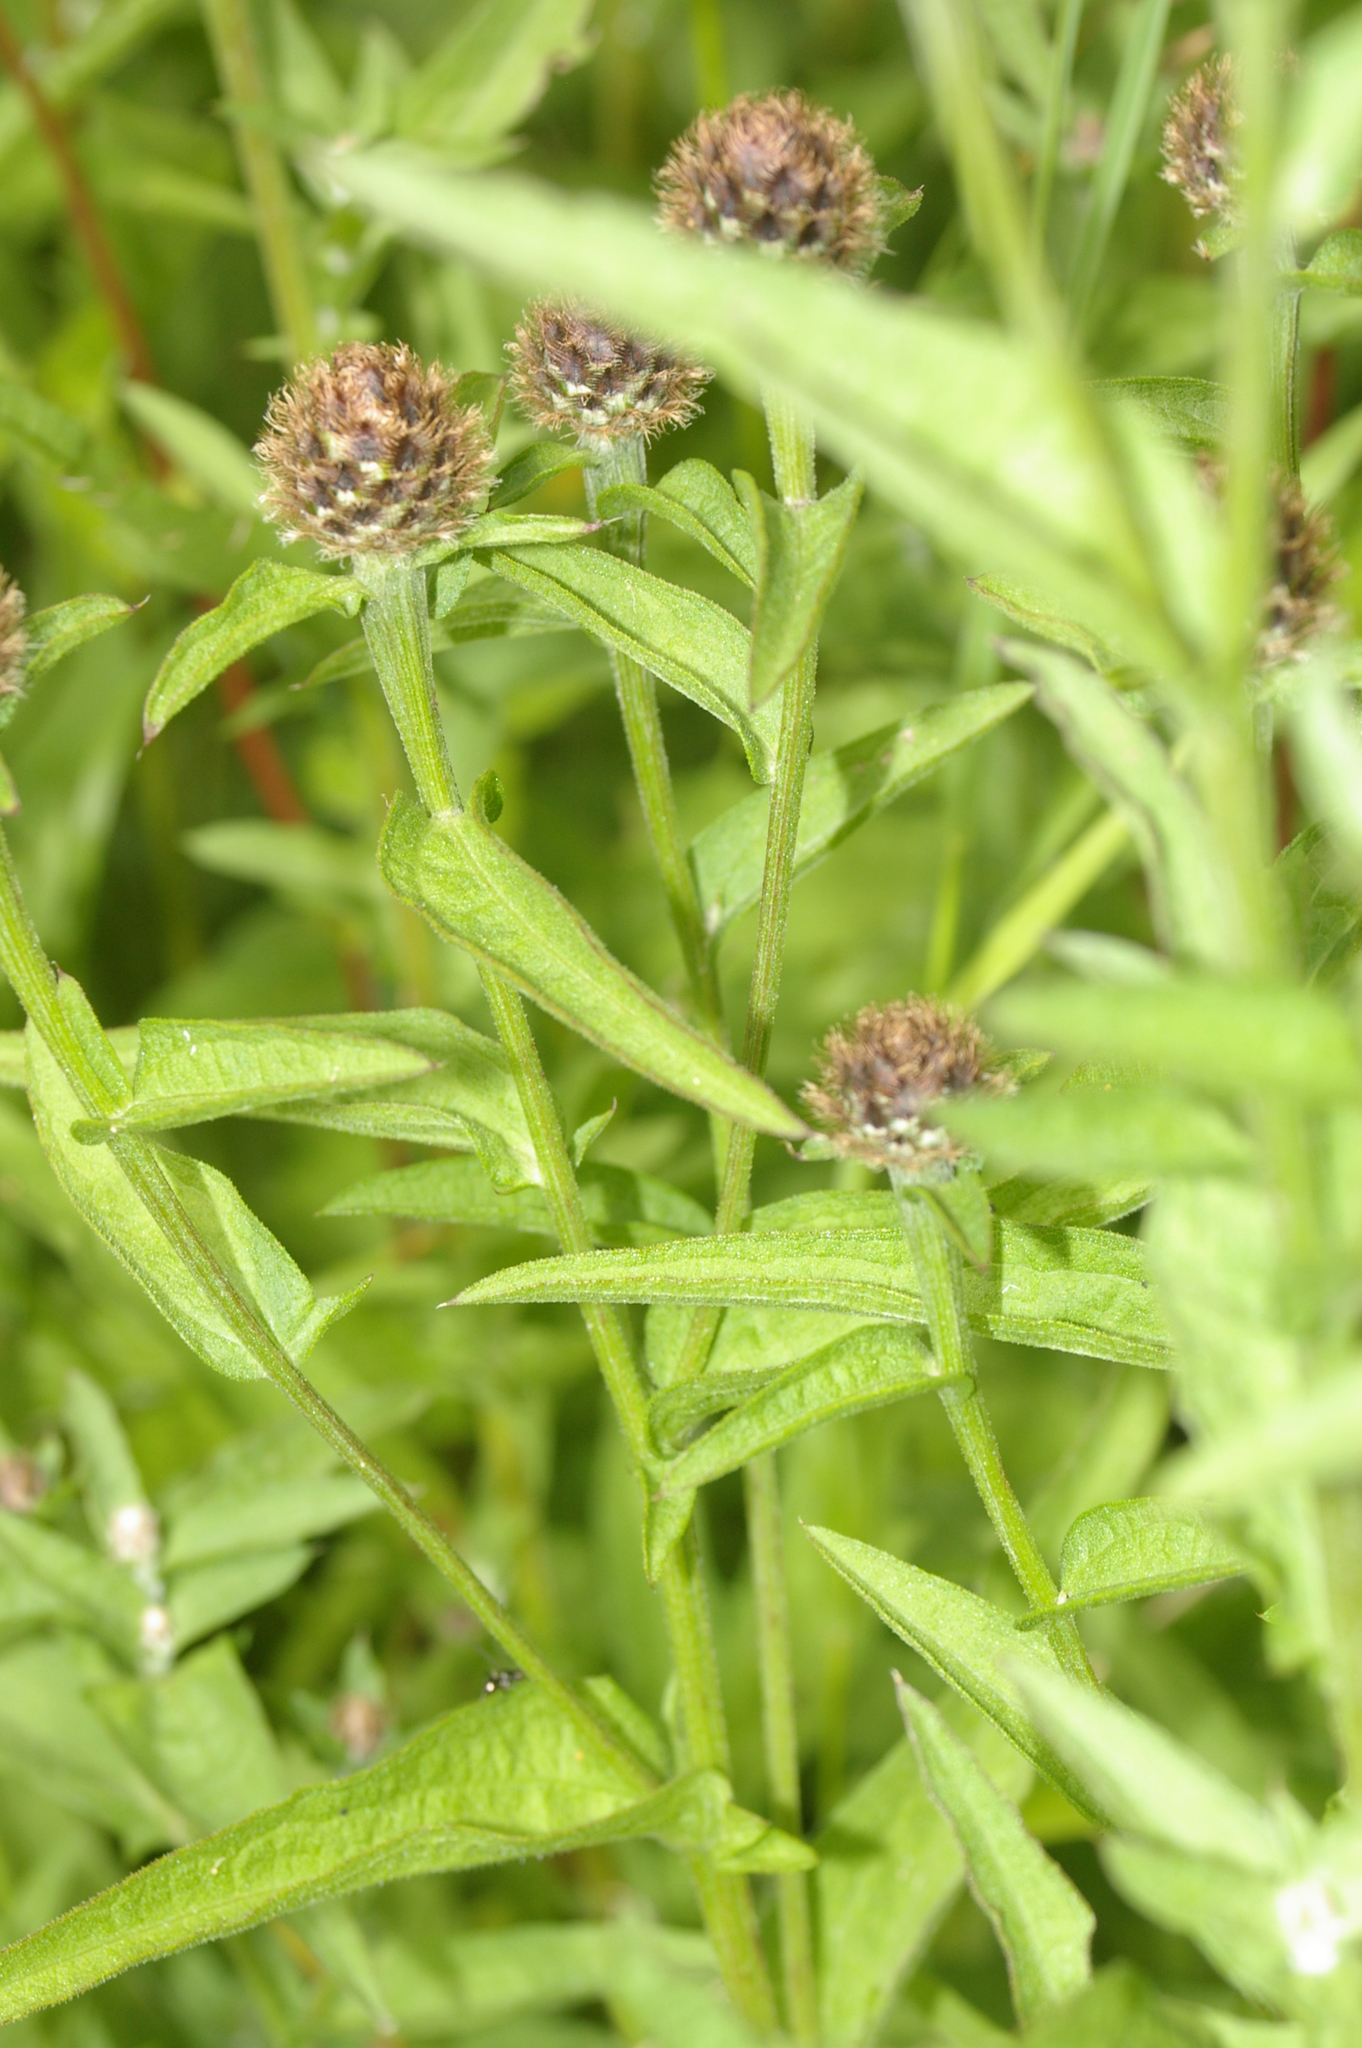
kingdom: Plantae
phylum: Tracheophyta
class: Magnoliopsida
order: Asterales
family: Asteraceae
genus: Centaurea
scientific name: Centaurea nigra
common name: Lesser knapweed
